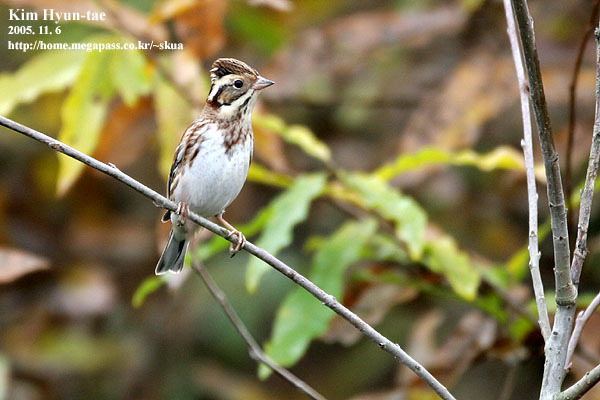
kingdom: Animalia
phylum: Chordata
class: Aves
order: Passeriformes
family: Emberizidae
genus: Emberiza
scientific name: Emberiza rustica
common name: Rustic bunting
